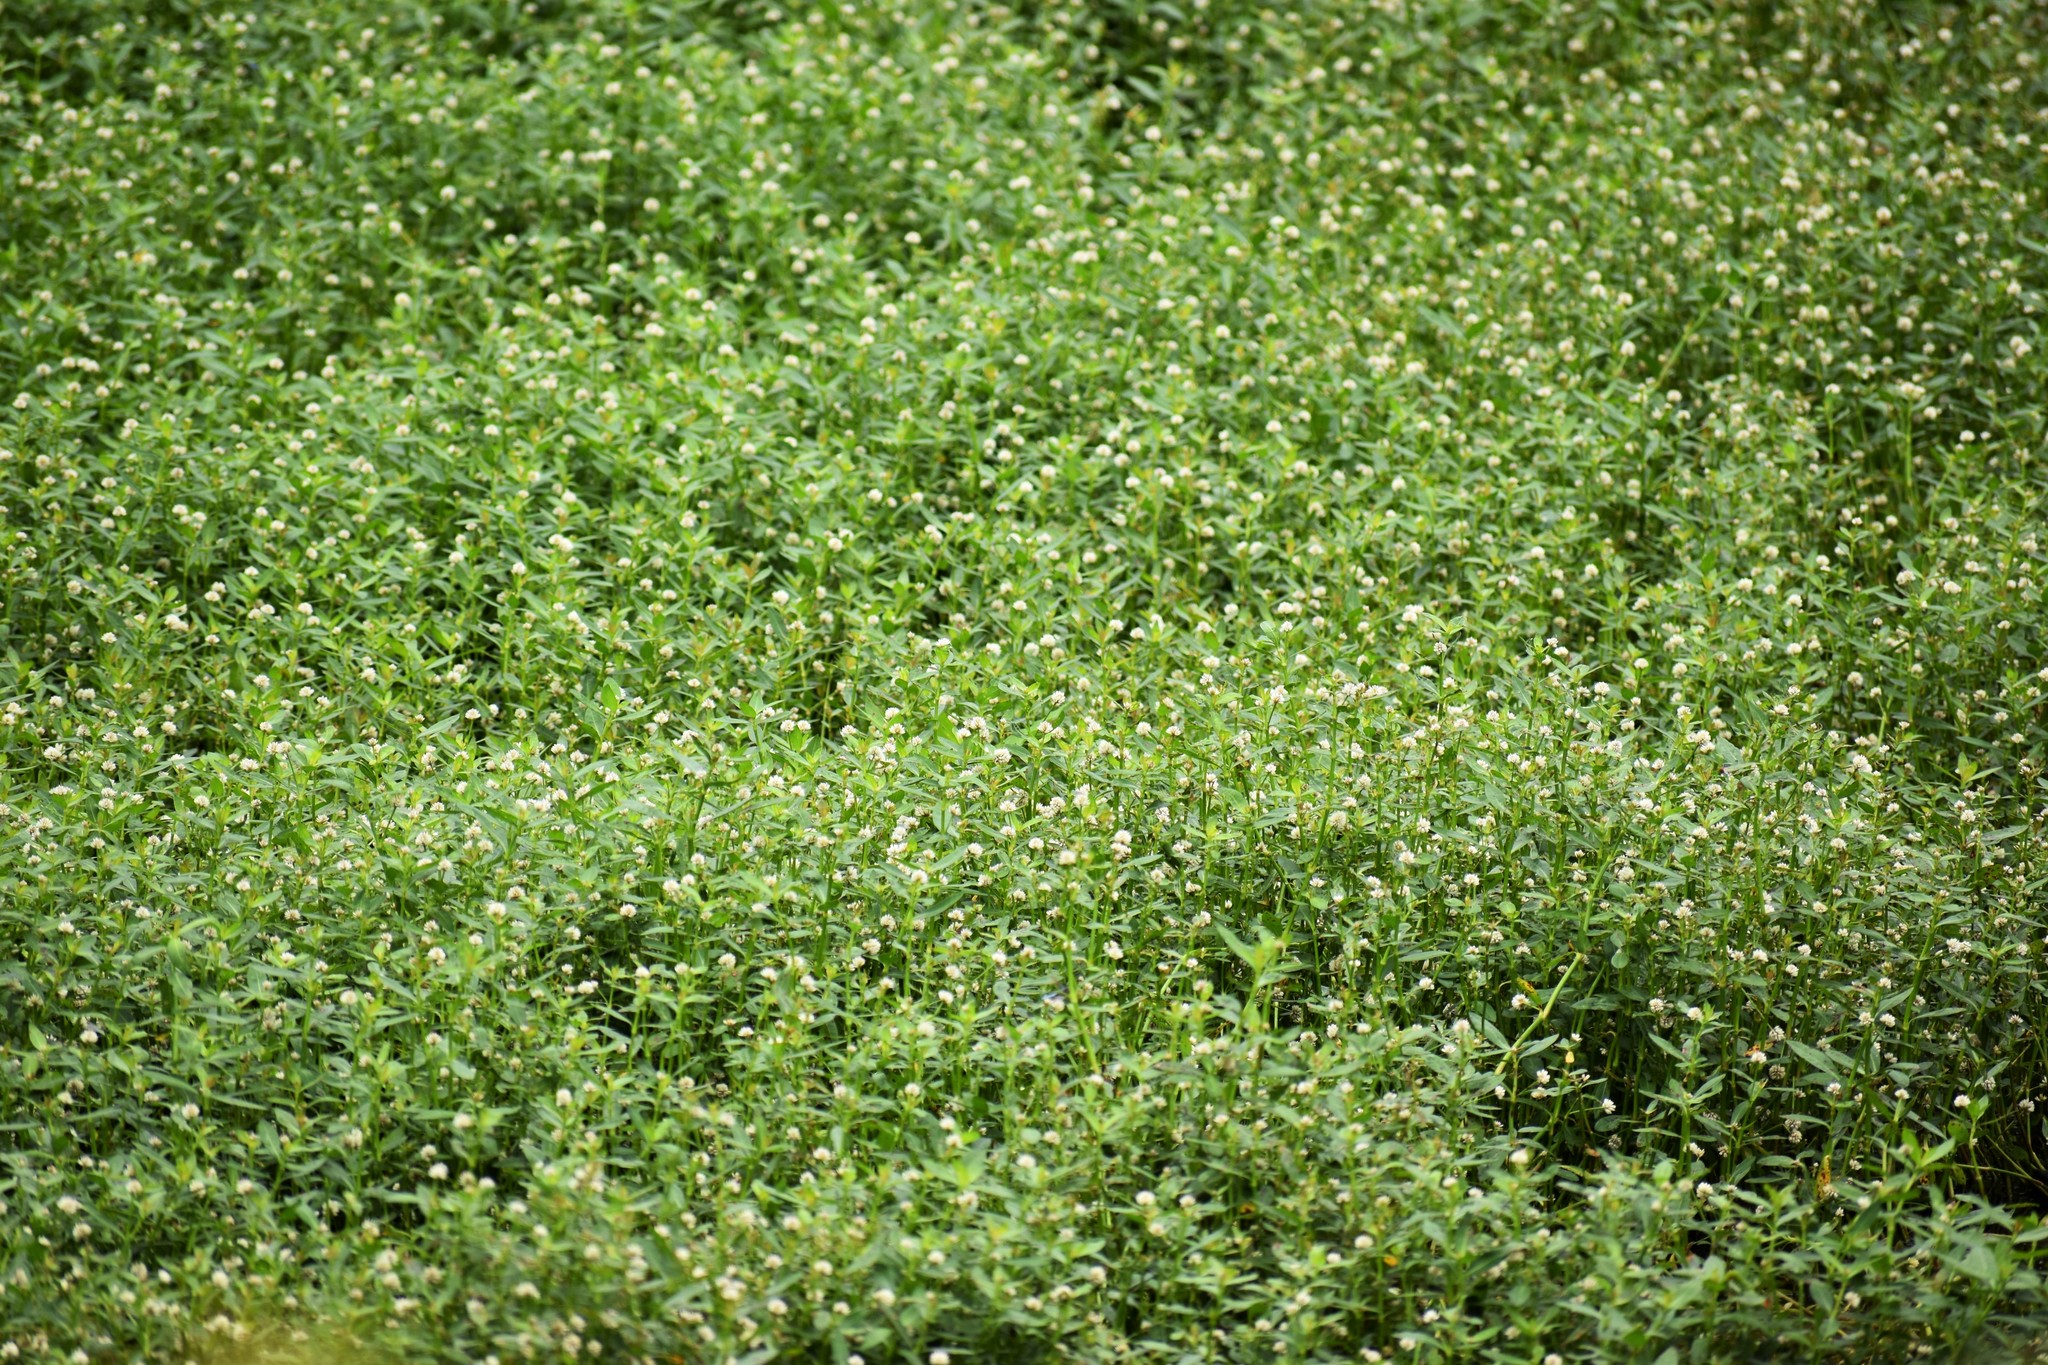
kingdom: Plantae
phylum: Tracheophyta
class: Magnoliopsida
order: Caryophyllales
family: Amaranthaceae
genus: Alternanthera
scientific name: Alternanthera philoxeroides
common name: Alligatorweed
